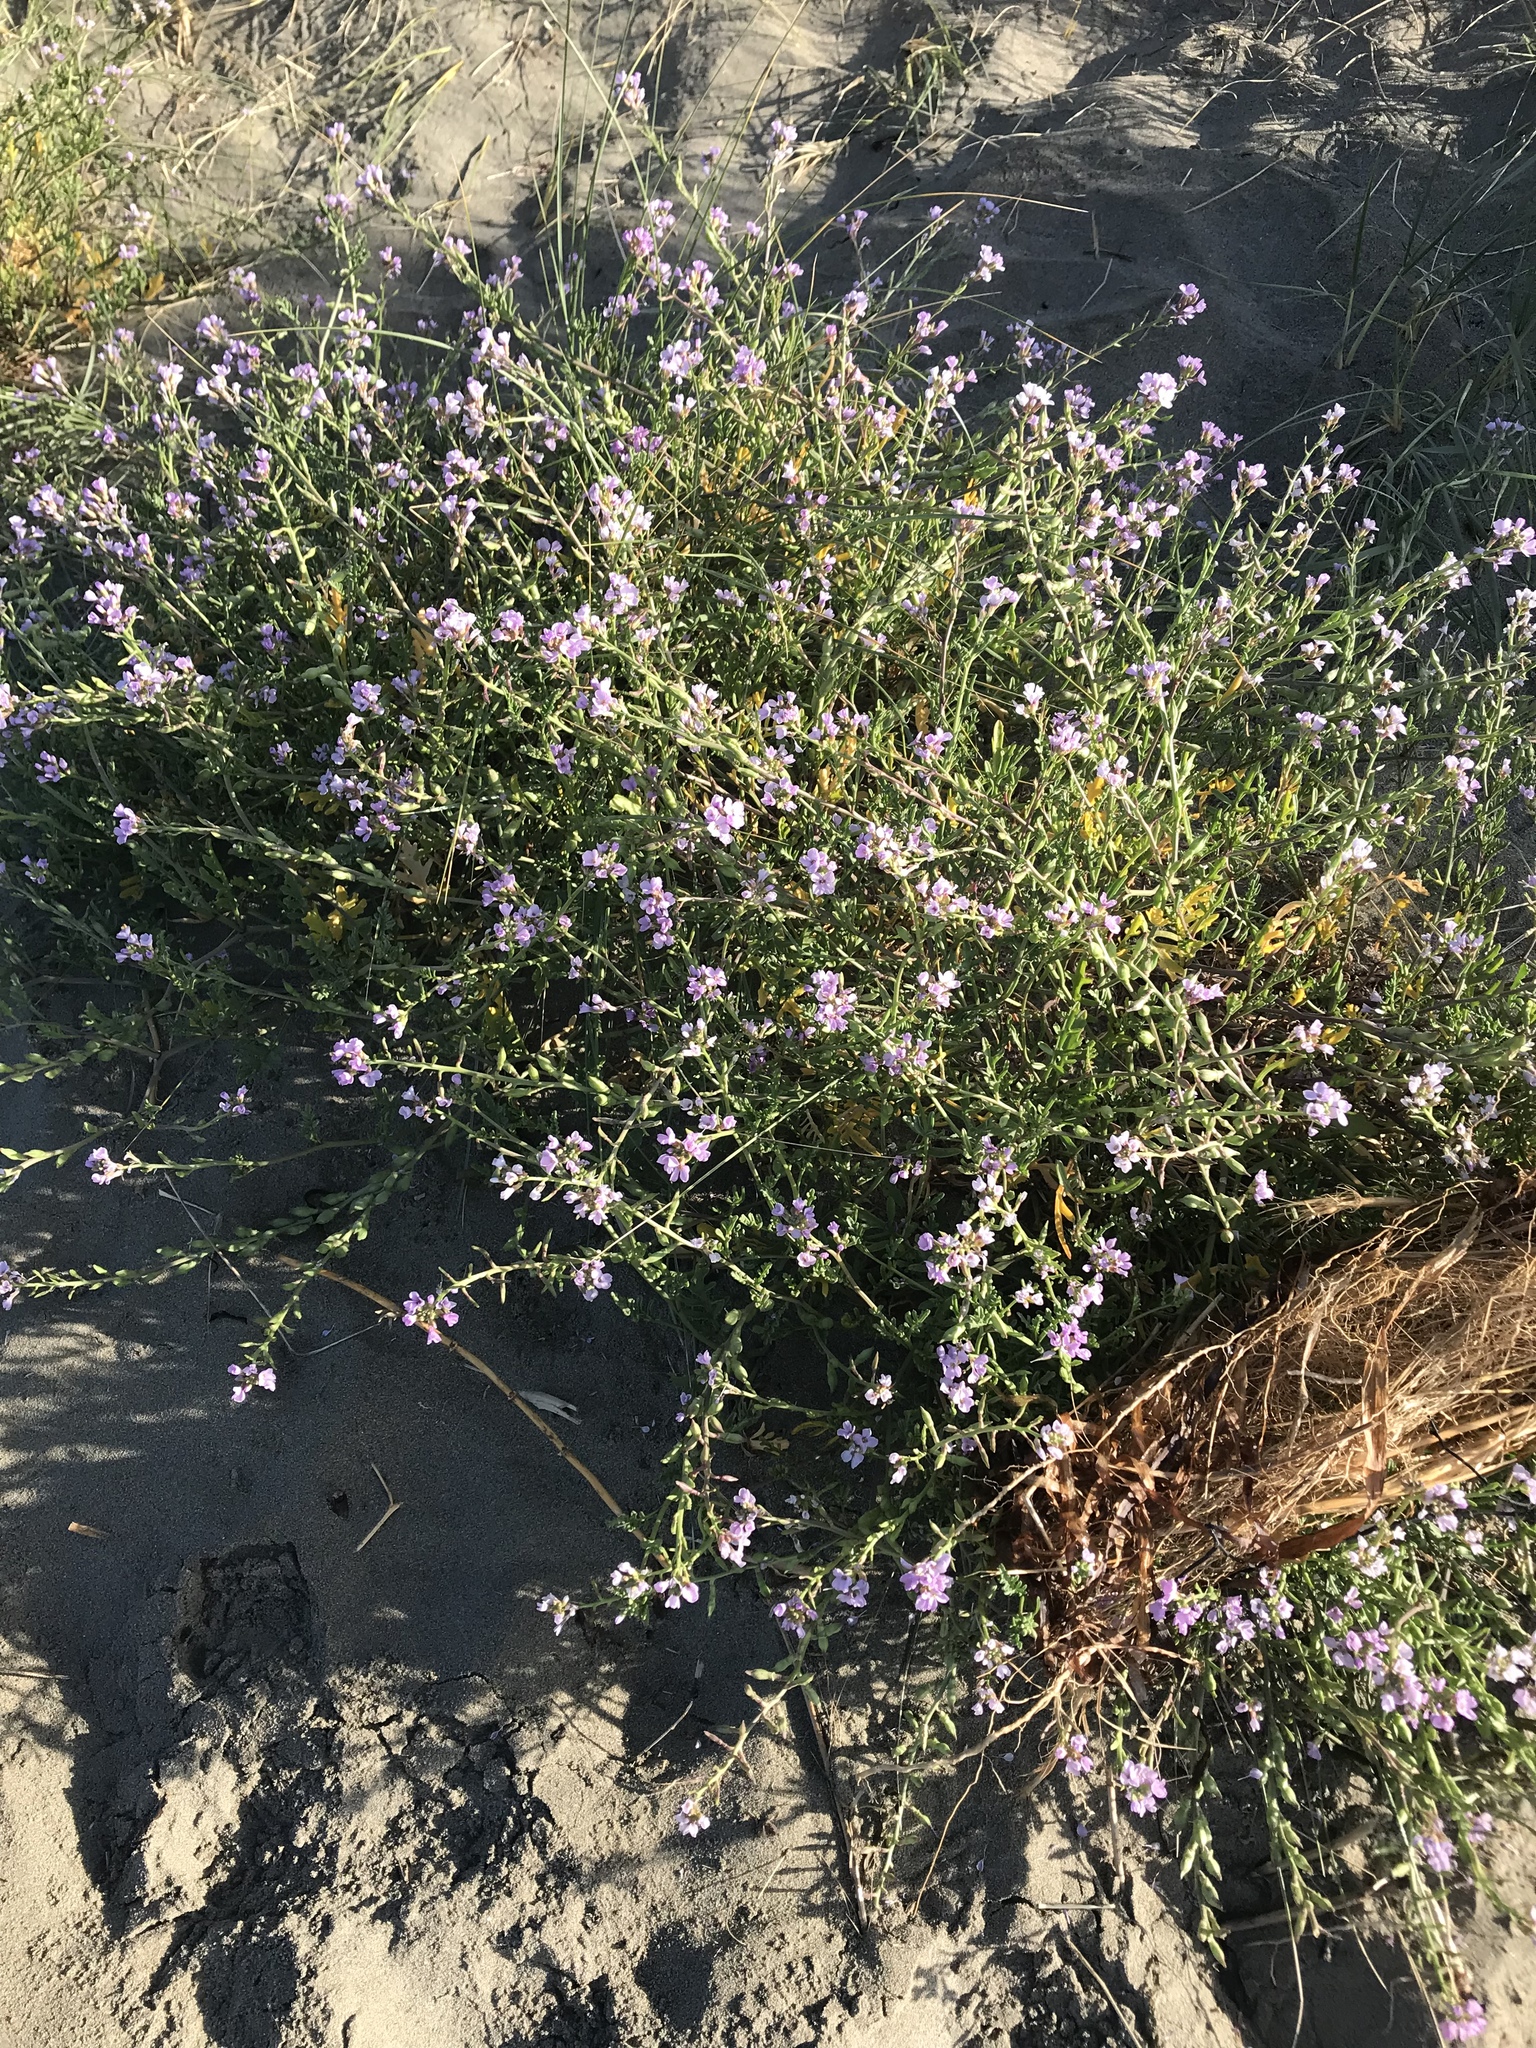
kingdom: Plantae
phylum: Tracheophyta
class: Magnoliopsida
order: Brassicales
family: Brassicaceae
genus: Cakile
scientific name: Cakile maritima
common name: Sea rocket
